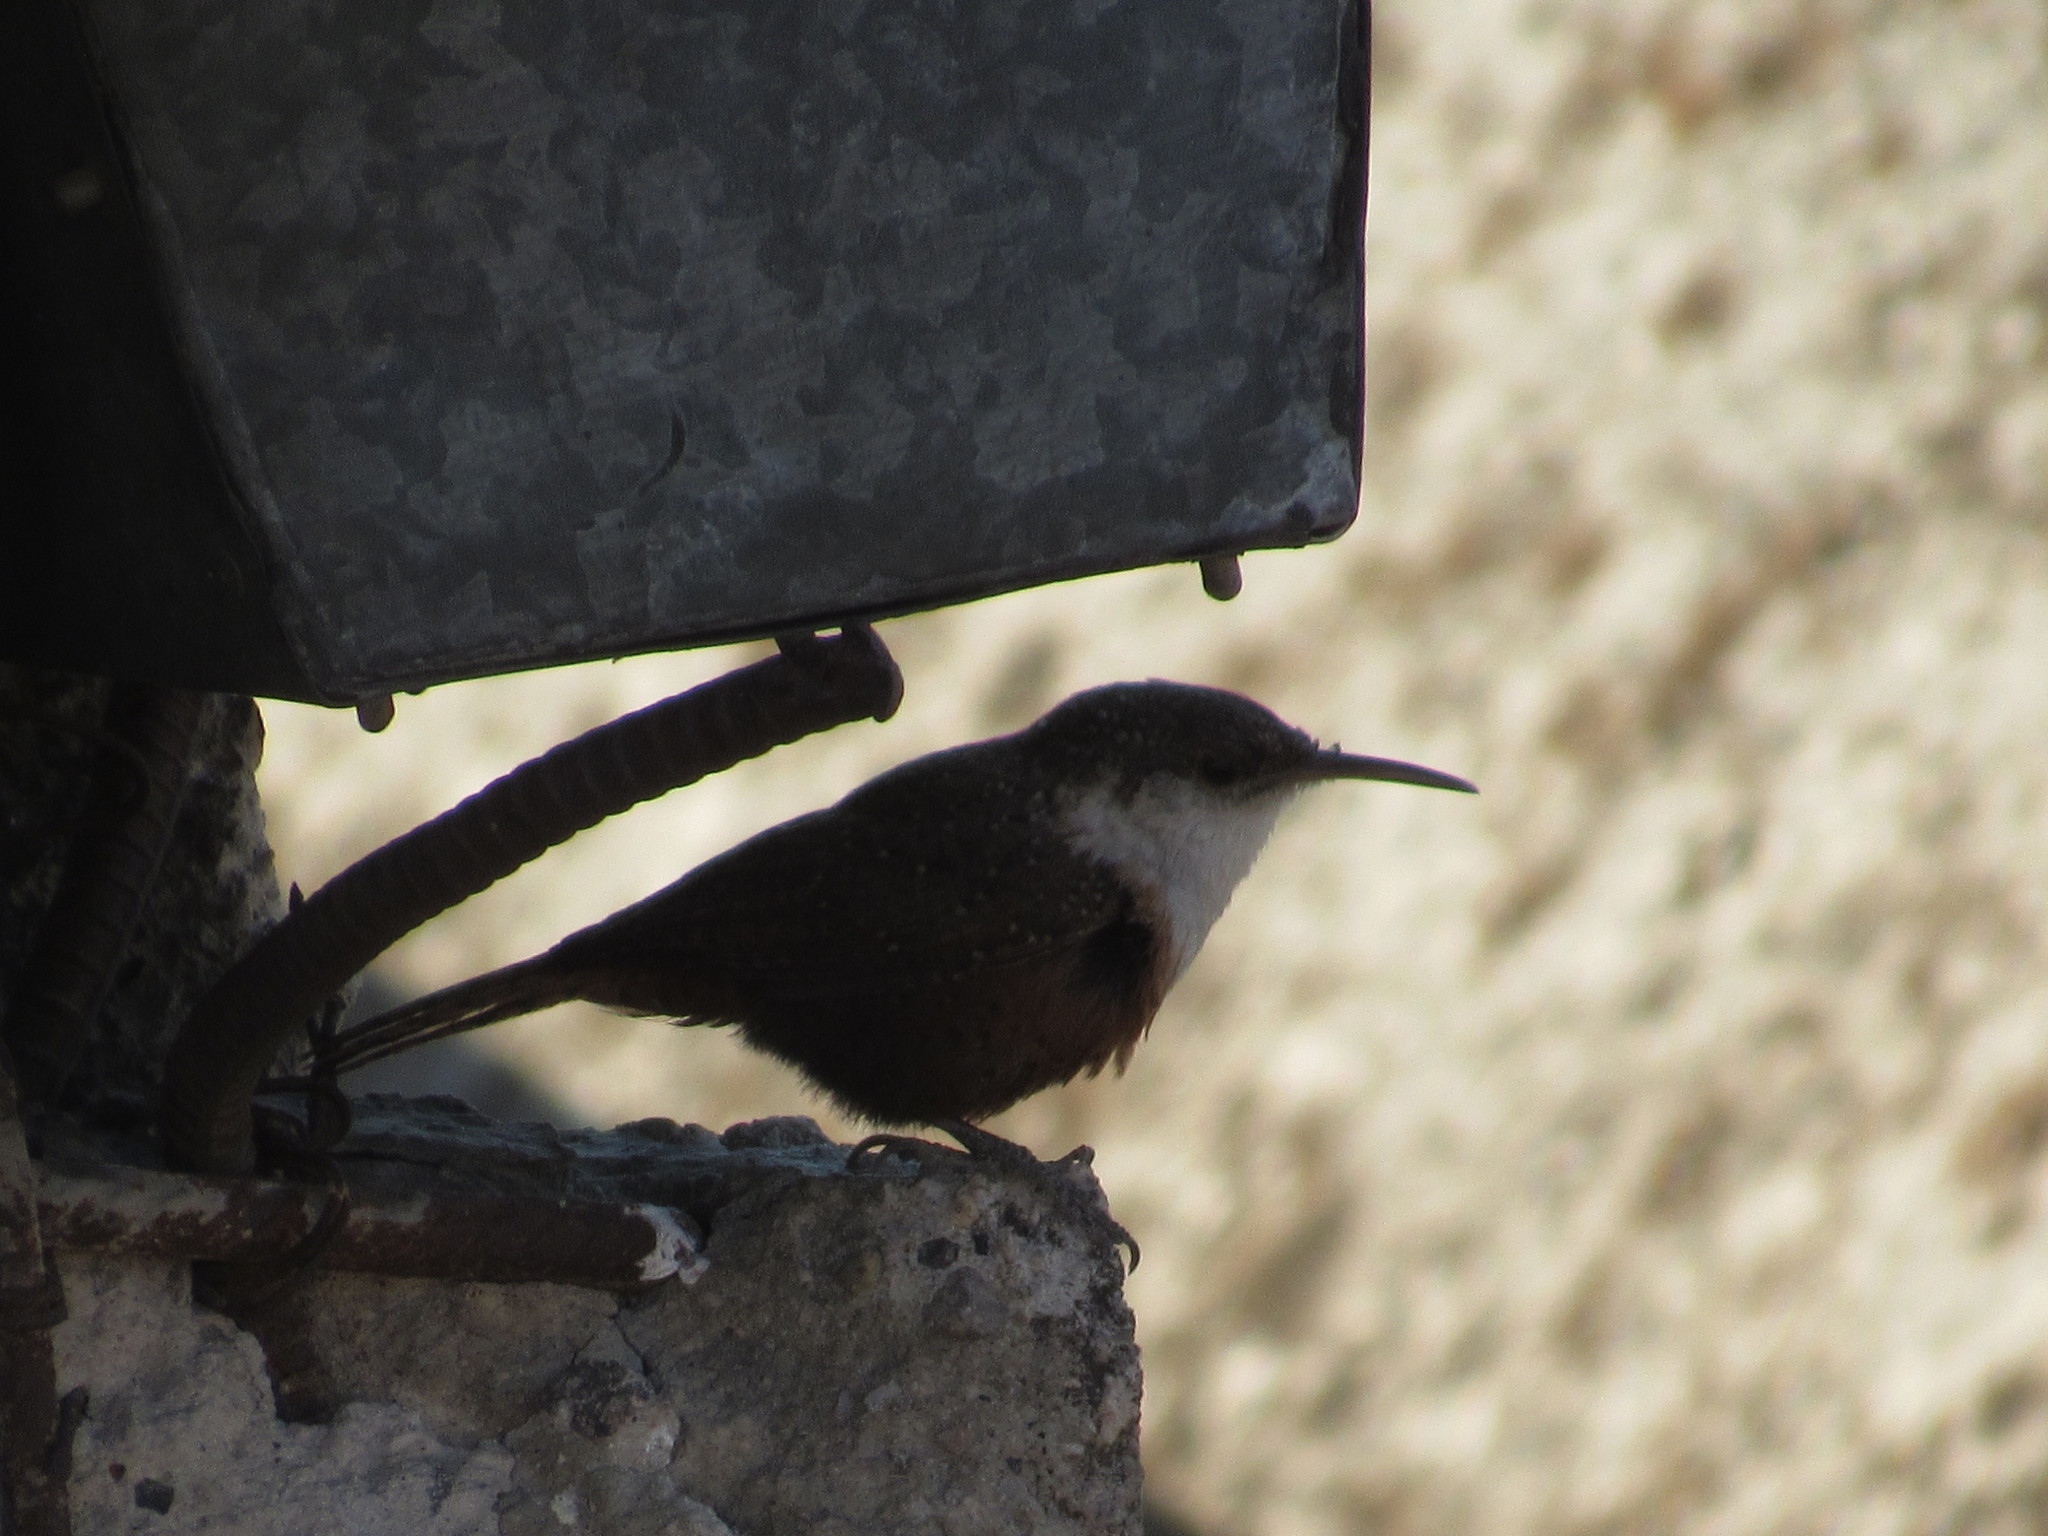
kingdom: Animalia
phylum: Chordata
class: Aves
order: Passeriformes
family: Troglodytidae
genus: Catherpes
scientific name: Catherpes mexicanus
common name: Canyon wren
